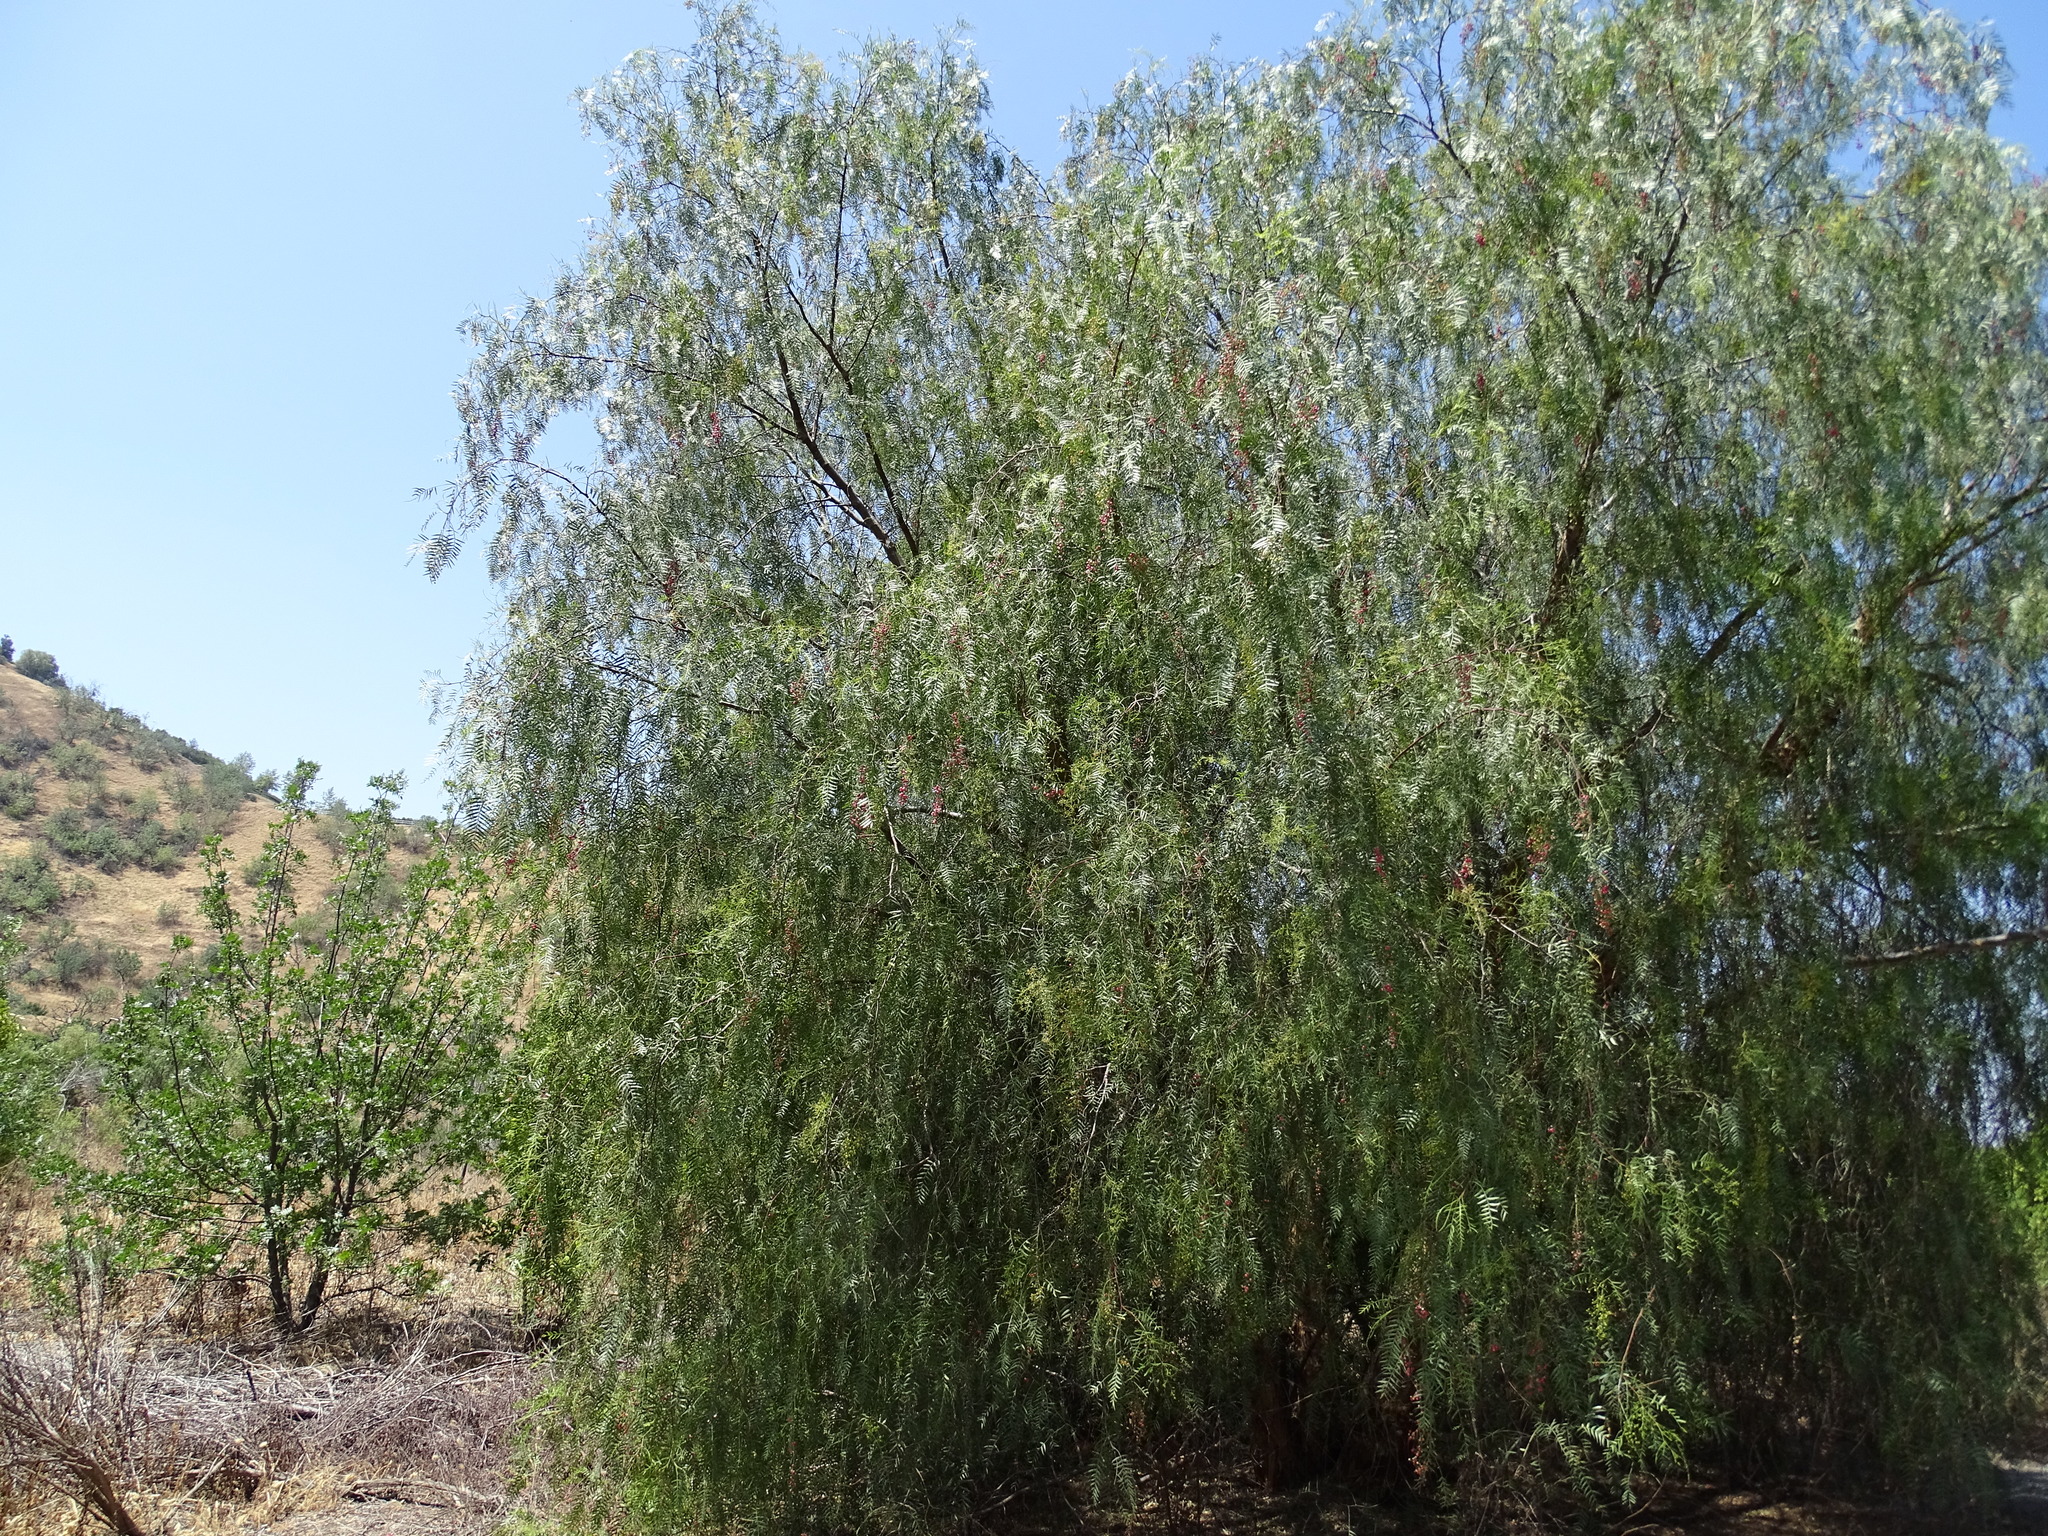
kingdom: Plantae
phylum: Tracheophyta
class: Magnoliopsida
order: Sapindales
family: Anacardiaceae
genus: Schinus
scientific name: Schinus molle
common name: Peruvian peppertree
